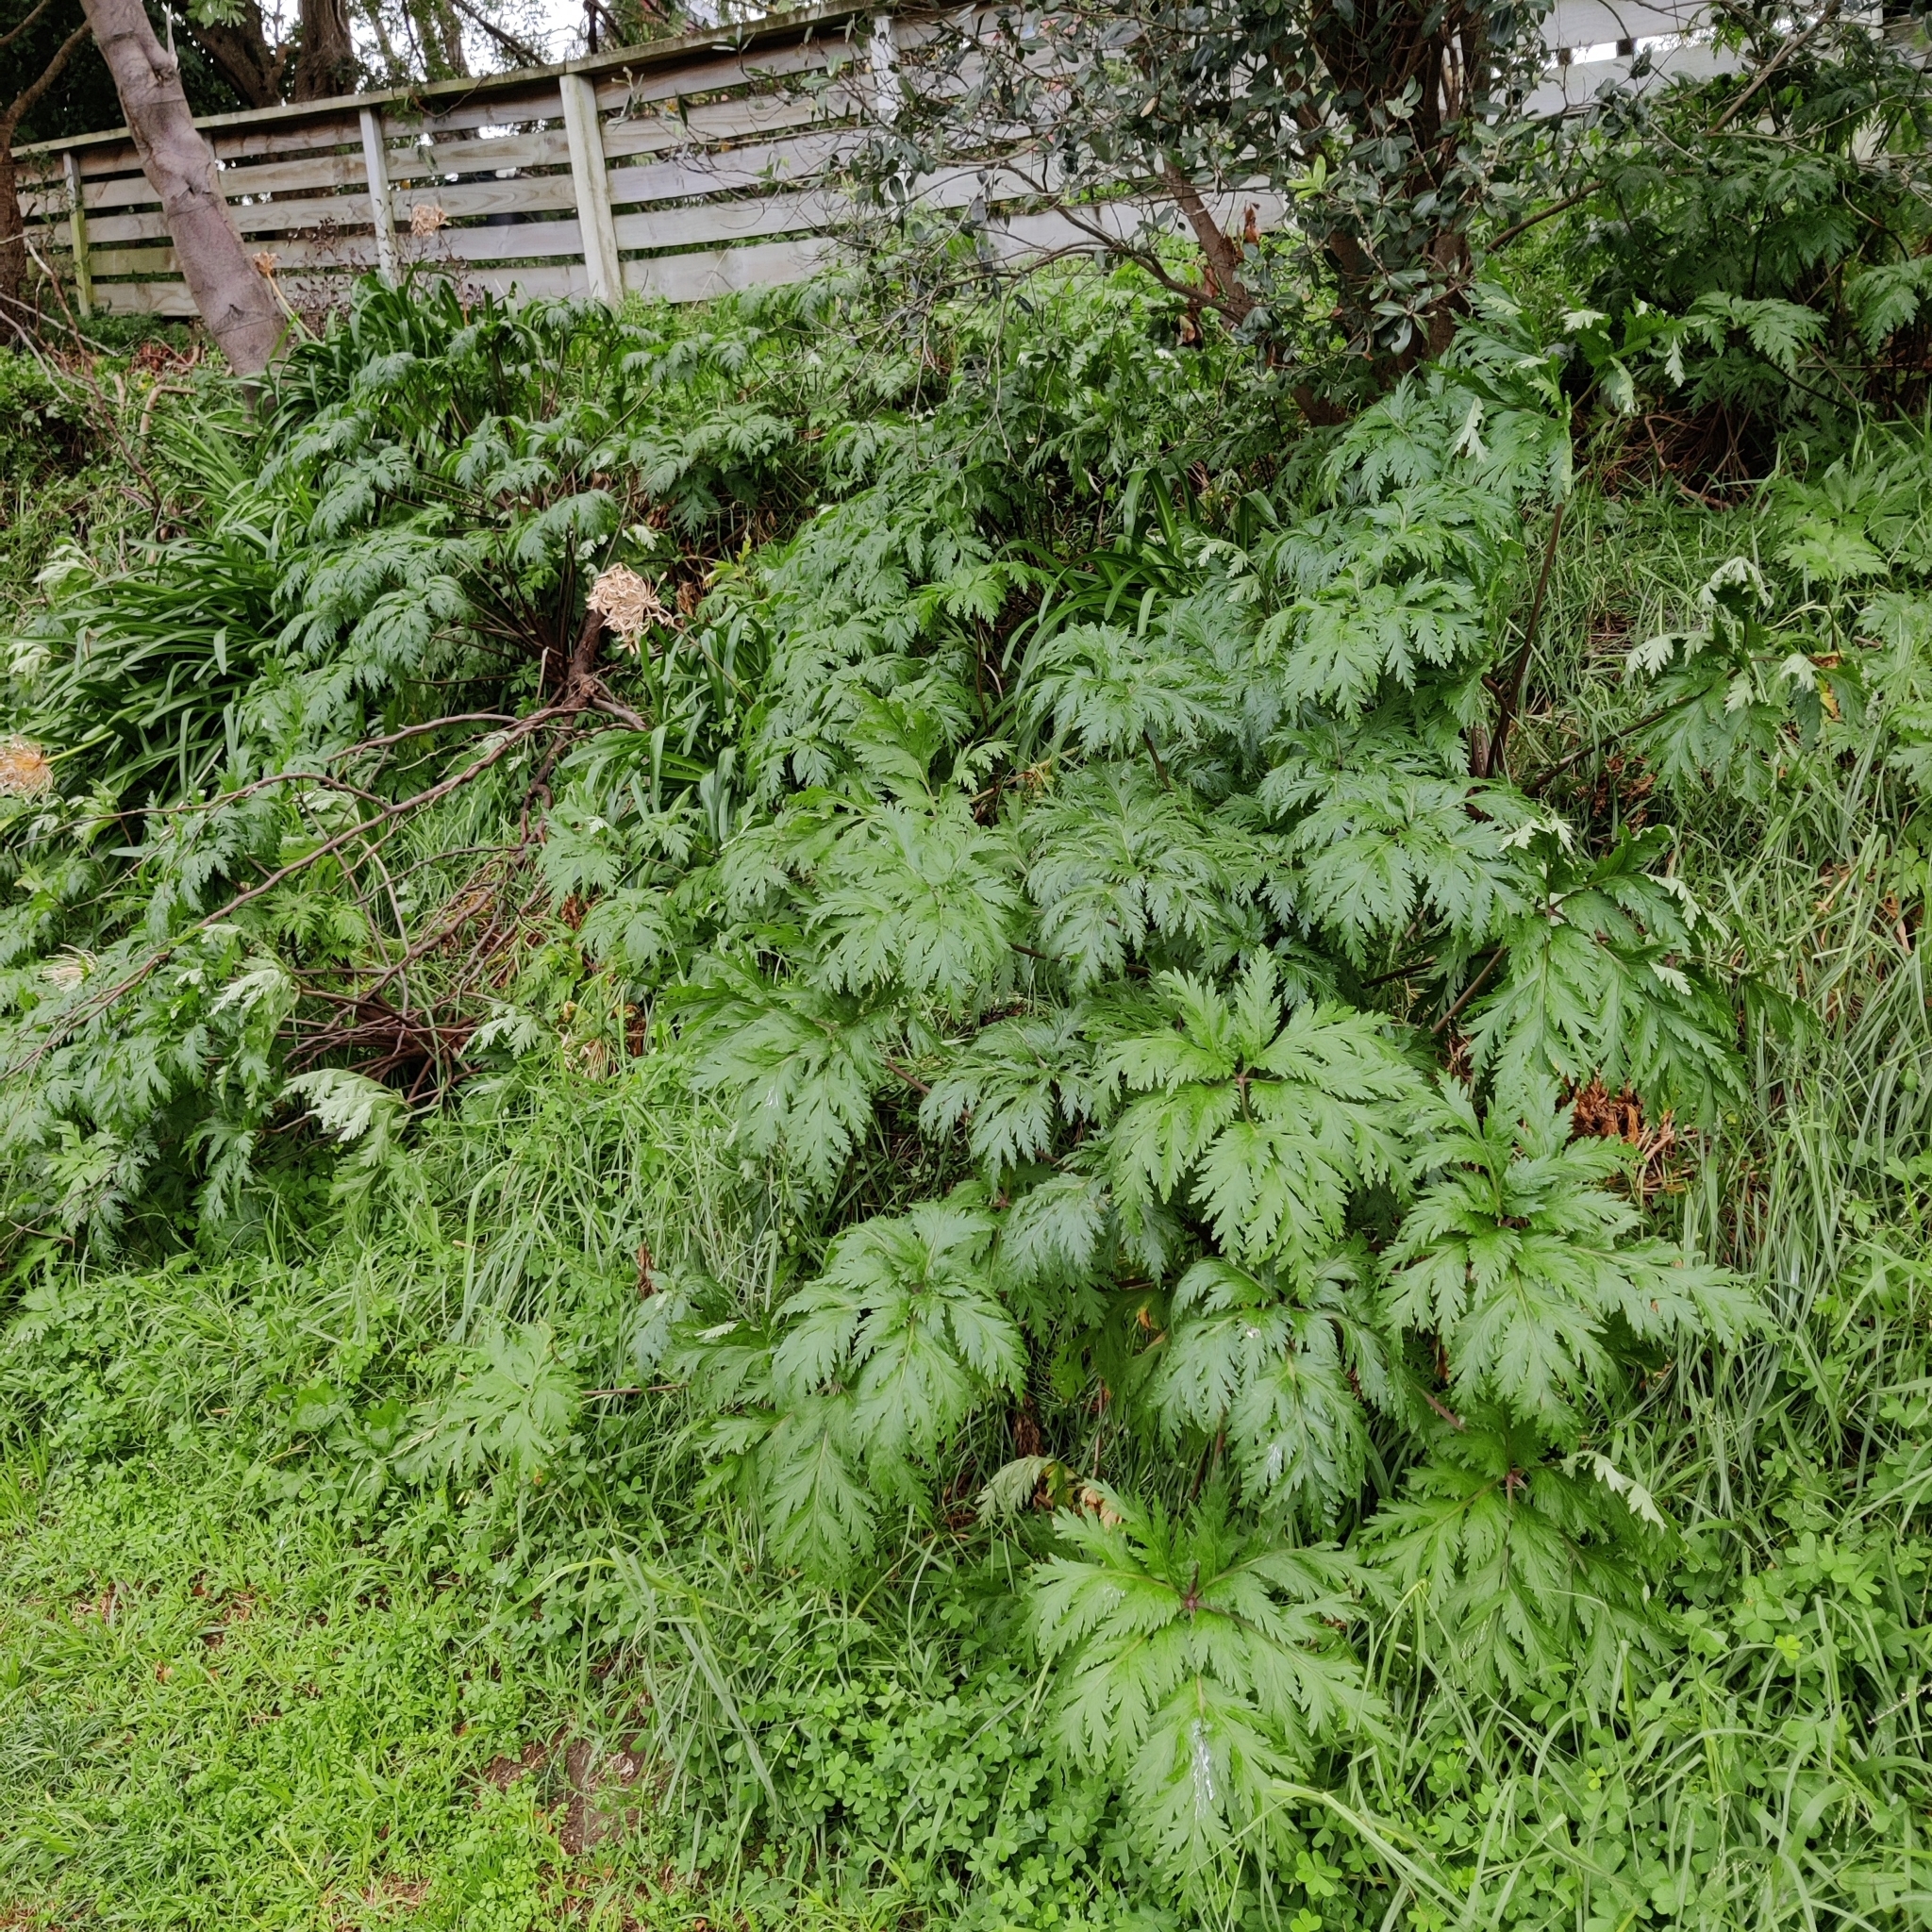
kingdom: Plantae
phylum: Tracheophyta
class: Magnoliopsida
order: Geraniales
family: Geraniaceae
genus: Geranium
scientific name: Geranium maderense
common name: Giant herb-robert
